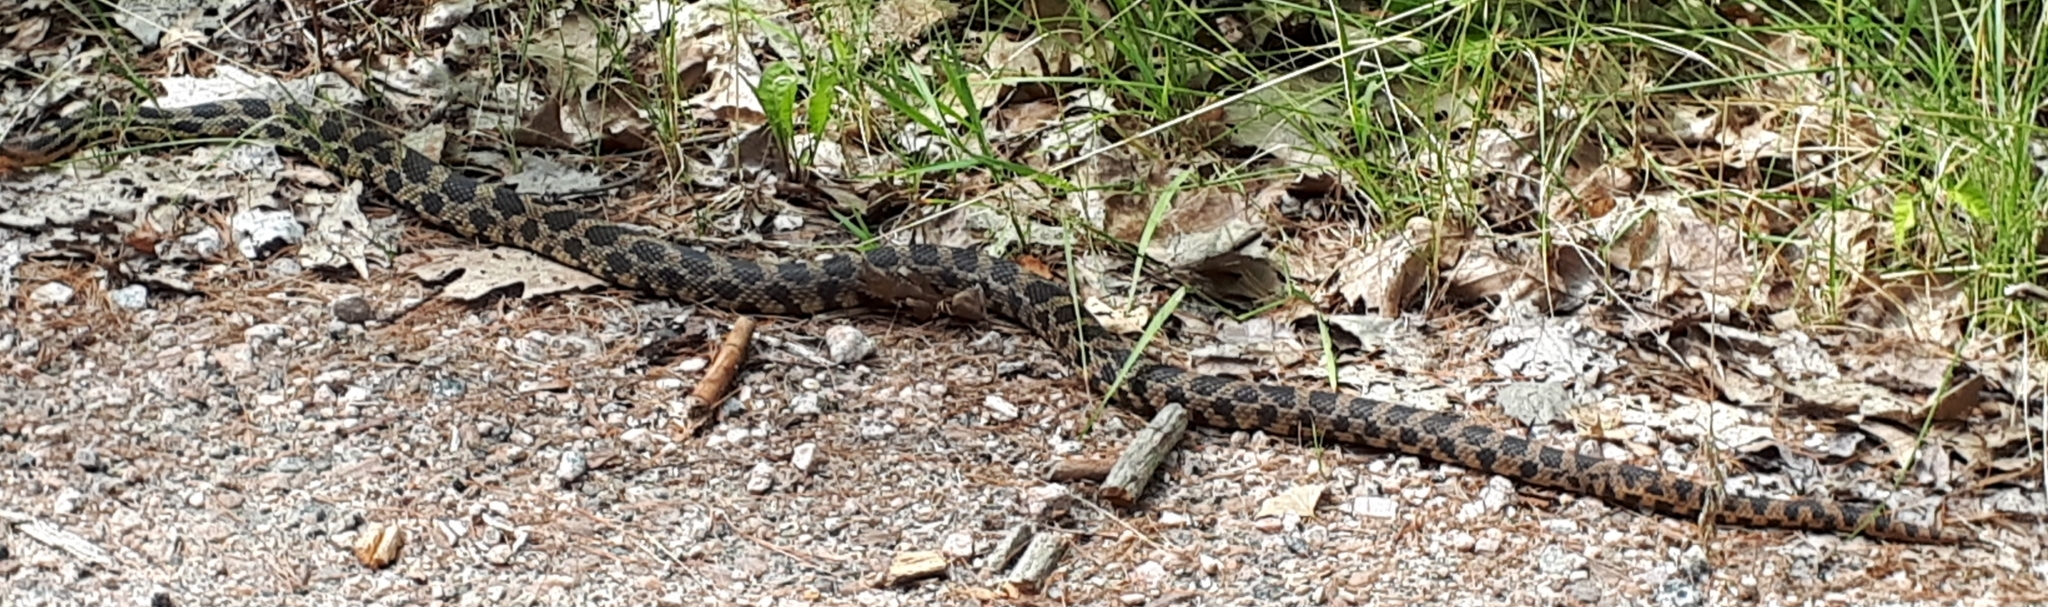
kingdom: Animalia
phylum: Chordata
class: Squamata
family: Colubridae
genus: Pantherophis
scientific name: Pantherophis vulpinus
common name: Eastern fox snake
